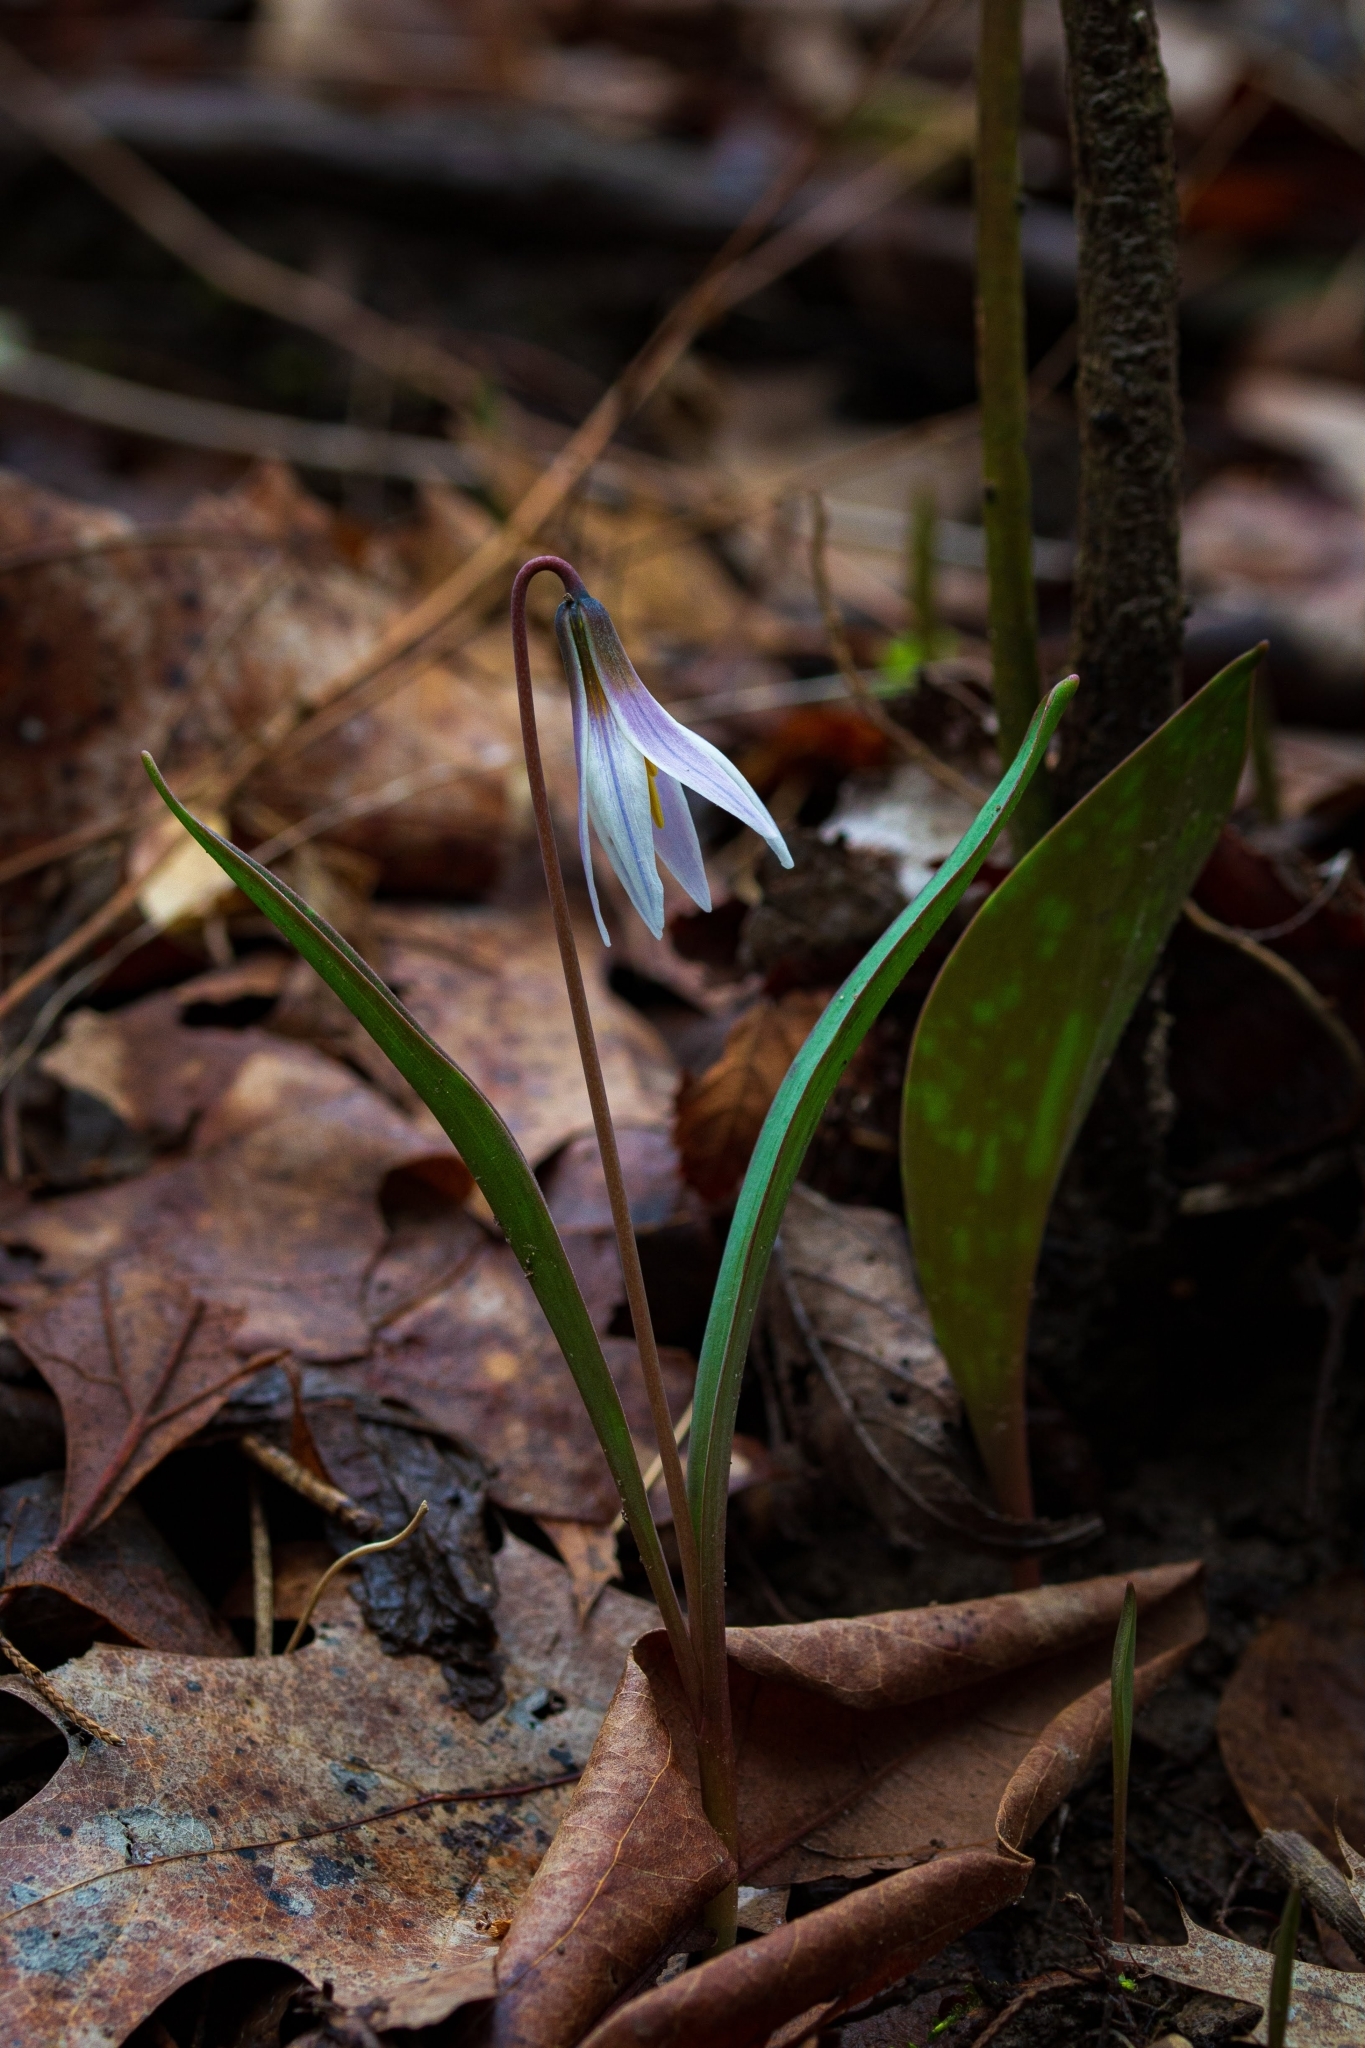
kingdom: Plantae
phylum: Tracheophyta
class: Liliopsida
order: Liliales
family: Liliaceae
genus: Erythronium
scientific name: Erythronium mesochoreum
